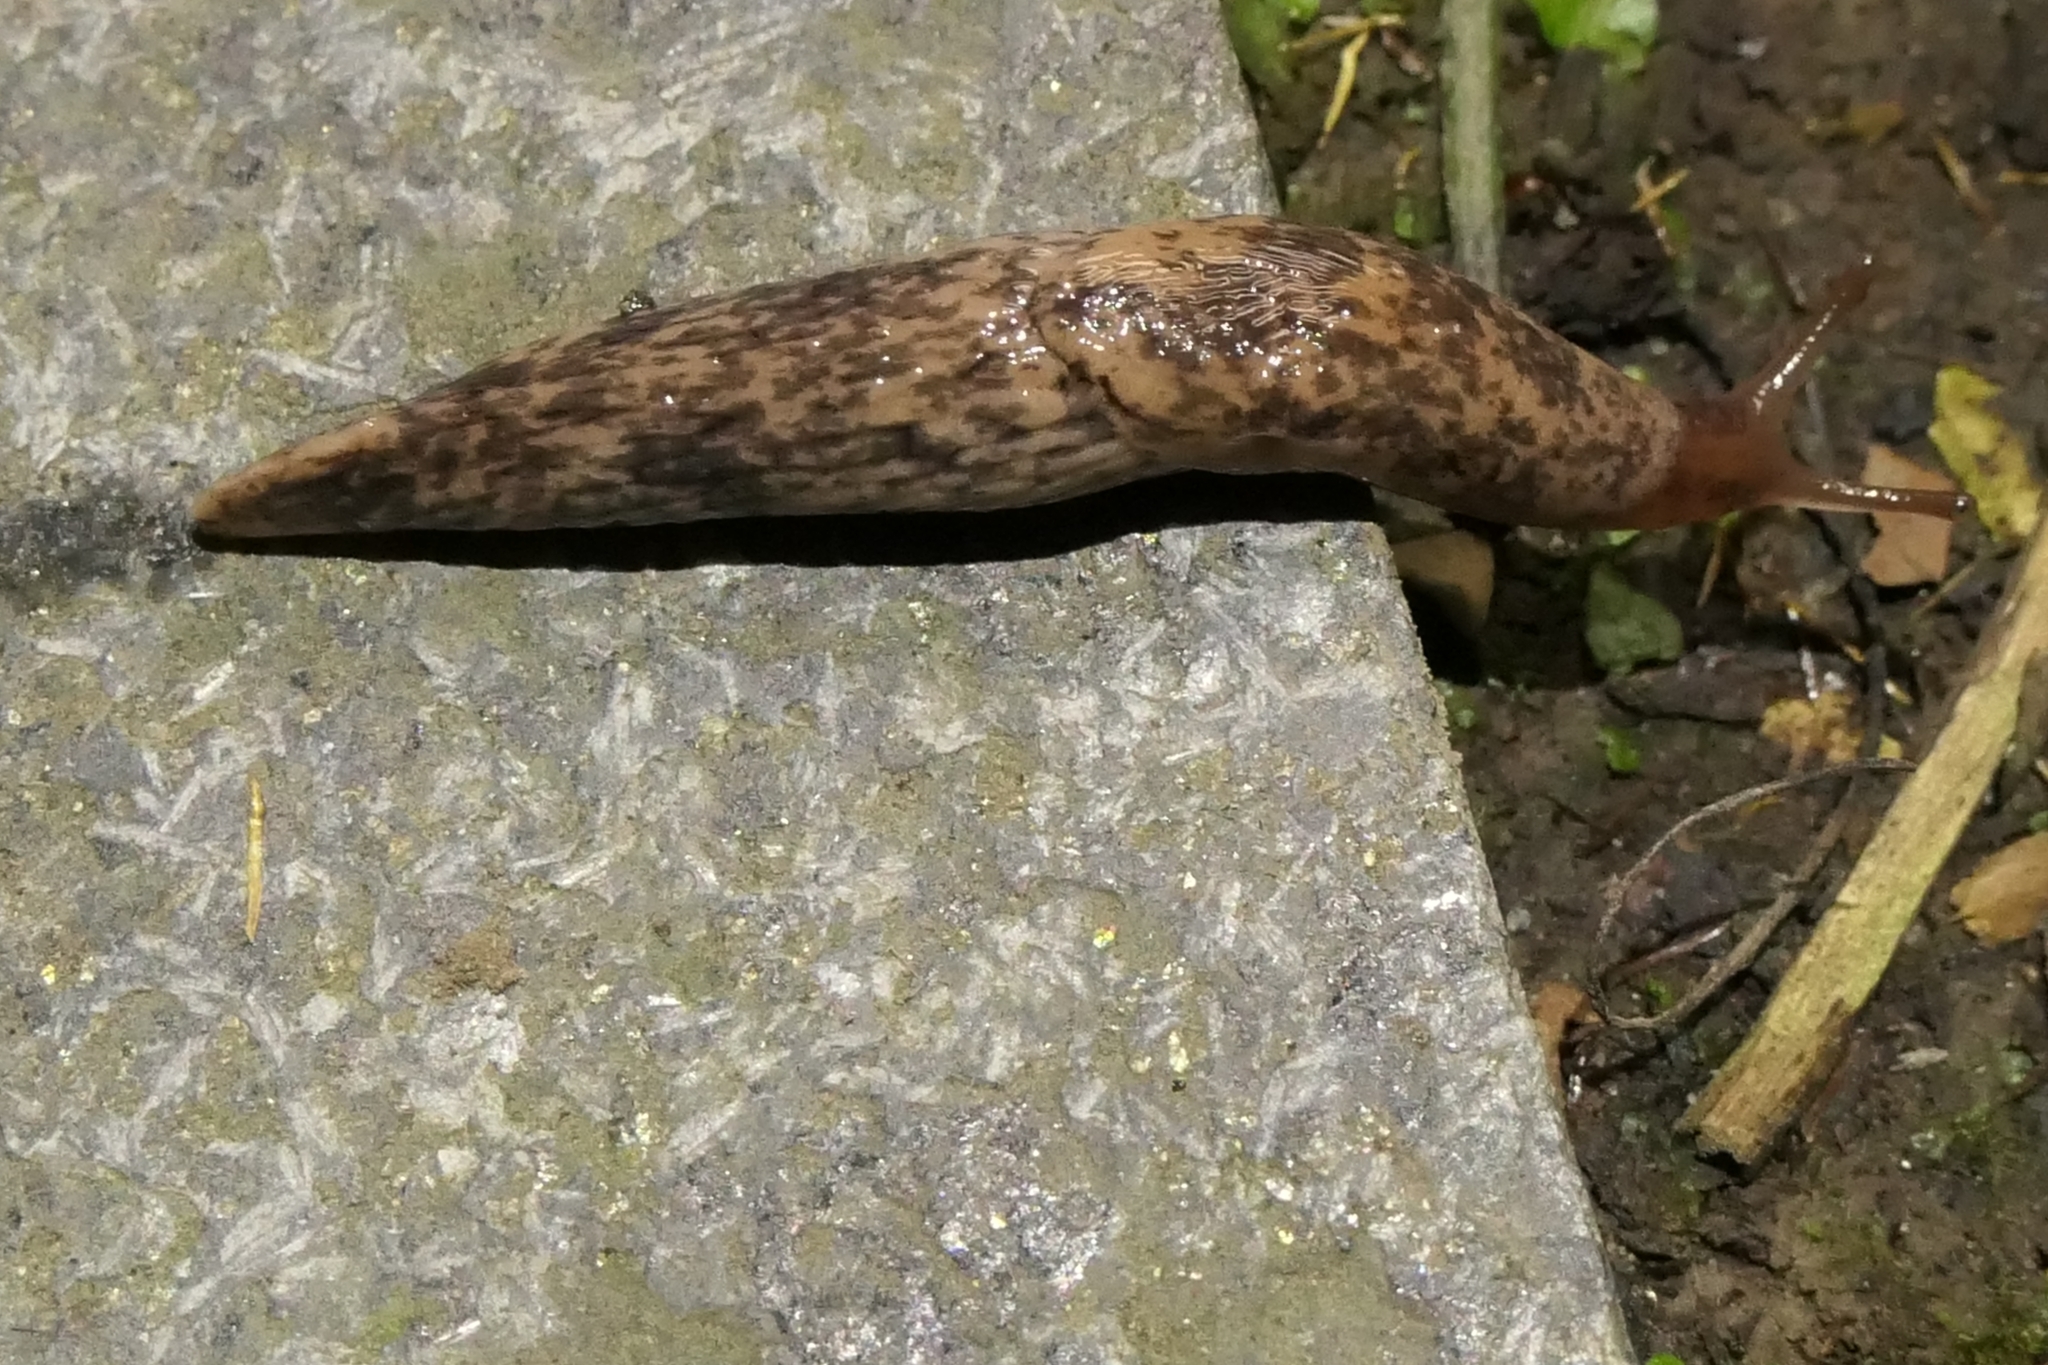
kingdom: Animalia
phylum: Mollusca
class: Gastropoda
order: Stylommatophora
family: Agriolimacidae
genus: Deroceras
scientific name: Deroceras reticulatum
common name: Gray field slug
